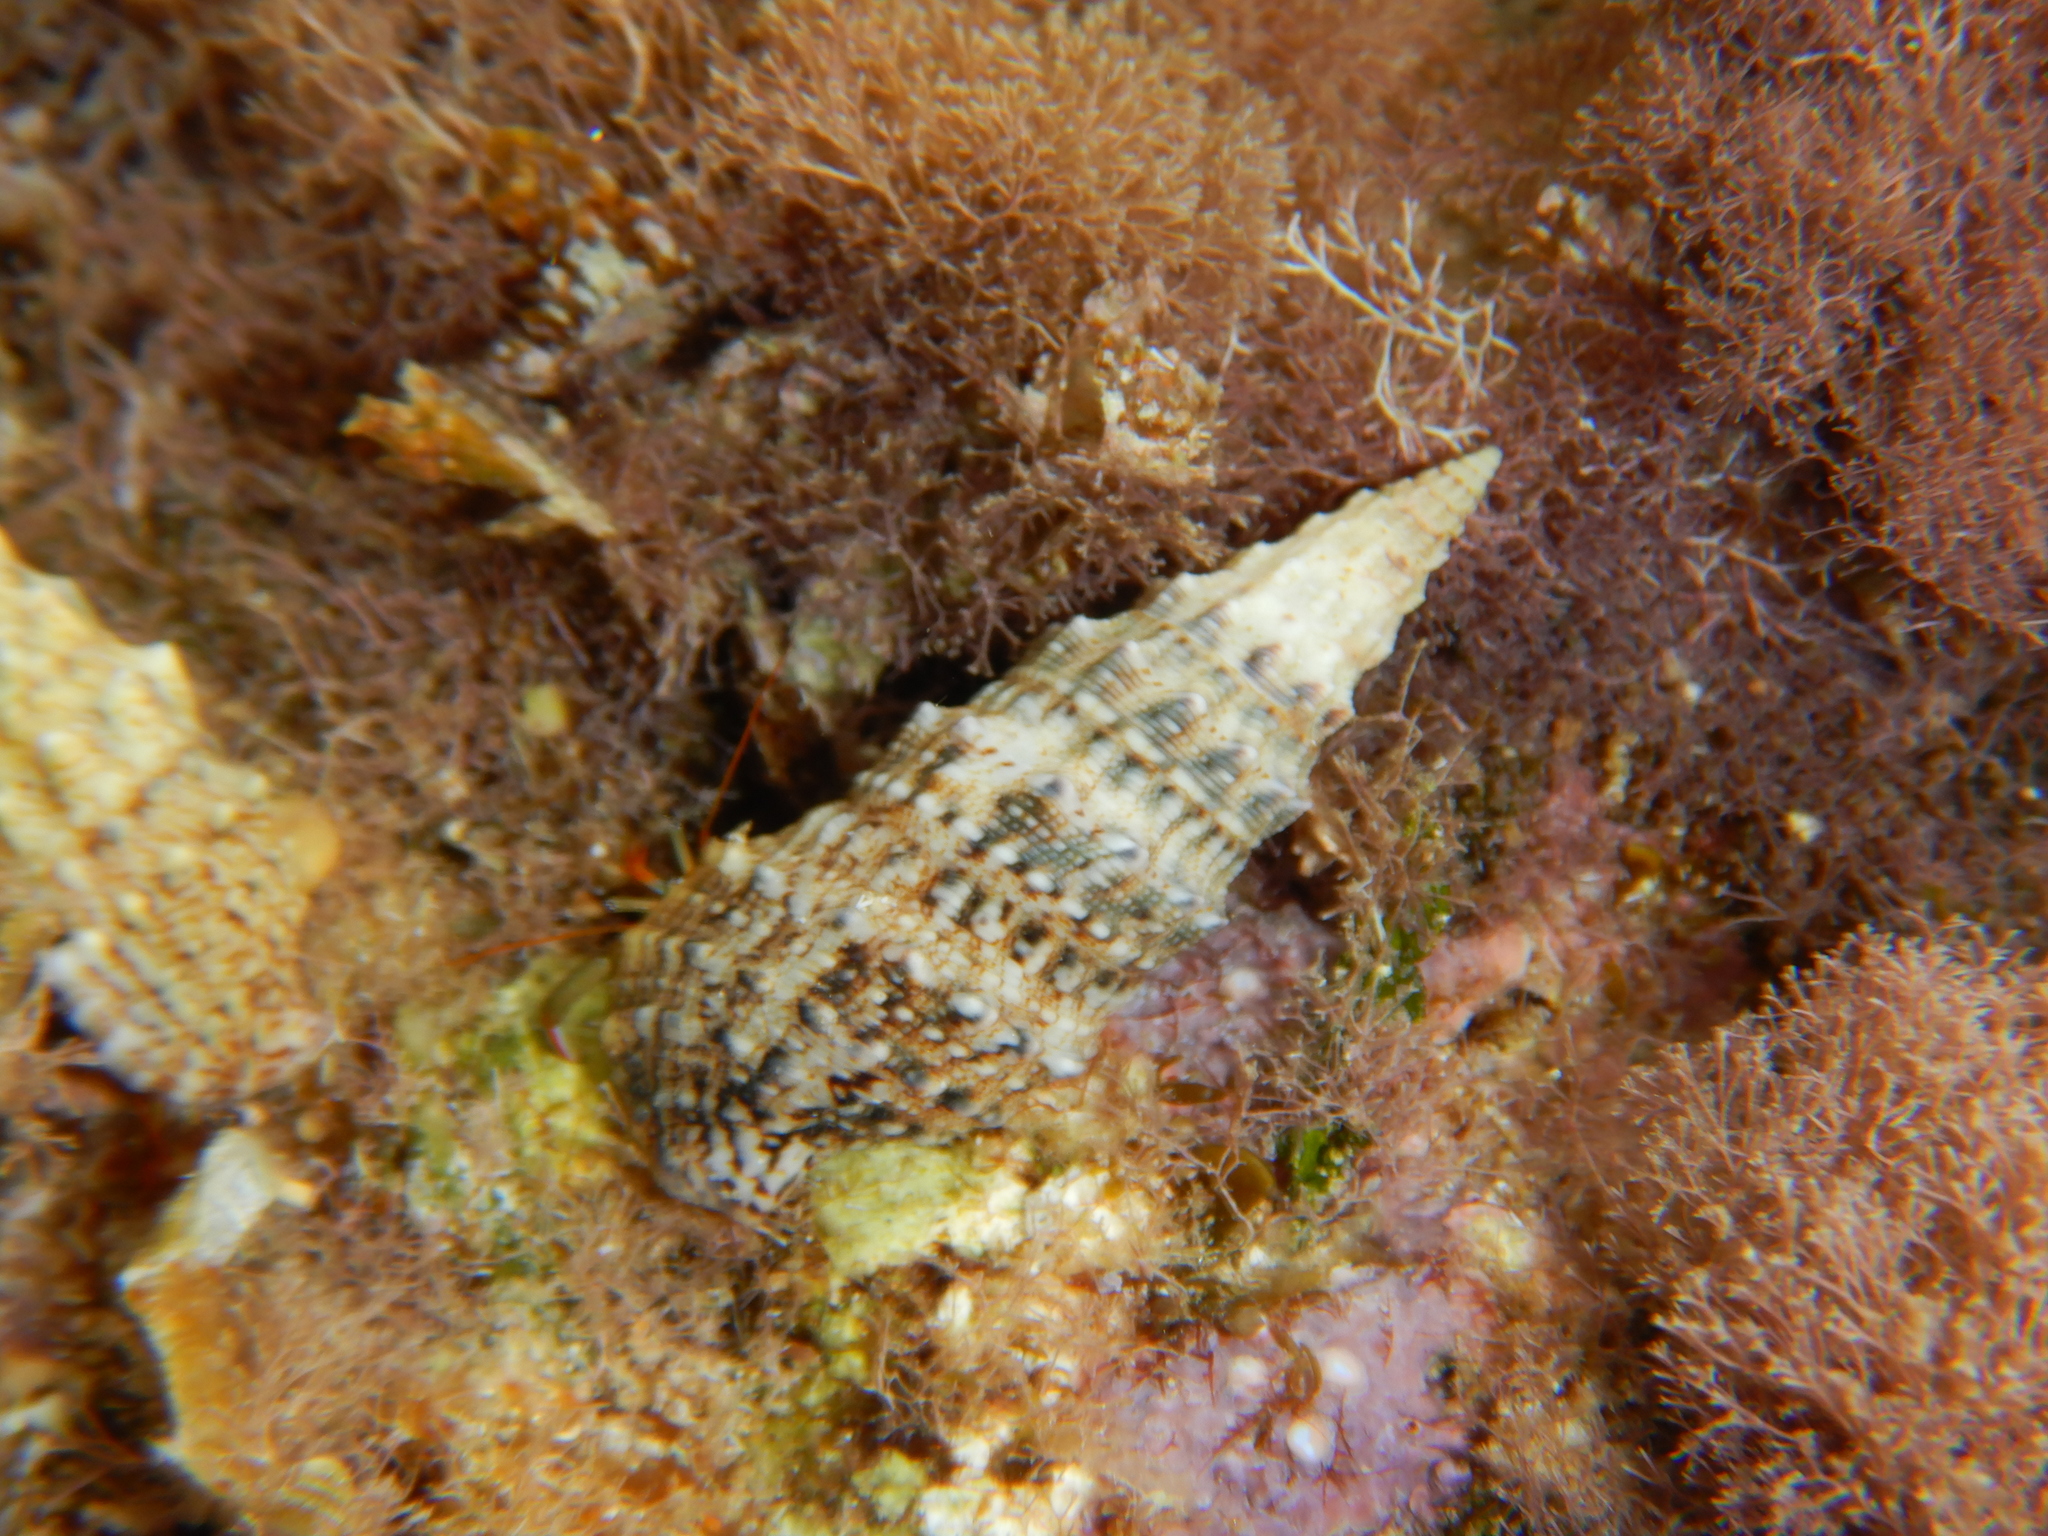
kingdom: Animalia
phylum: Mollusca
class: Gastropoda
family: Cerithiidae
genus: Cerithium
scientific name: Cerithium vulgatum
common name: European cerith
